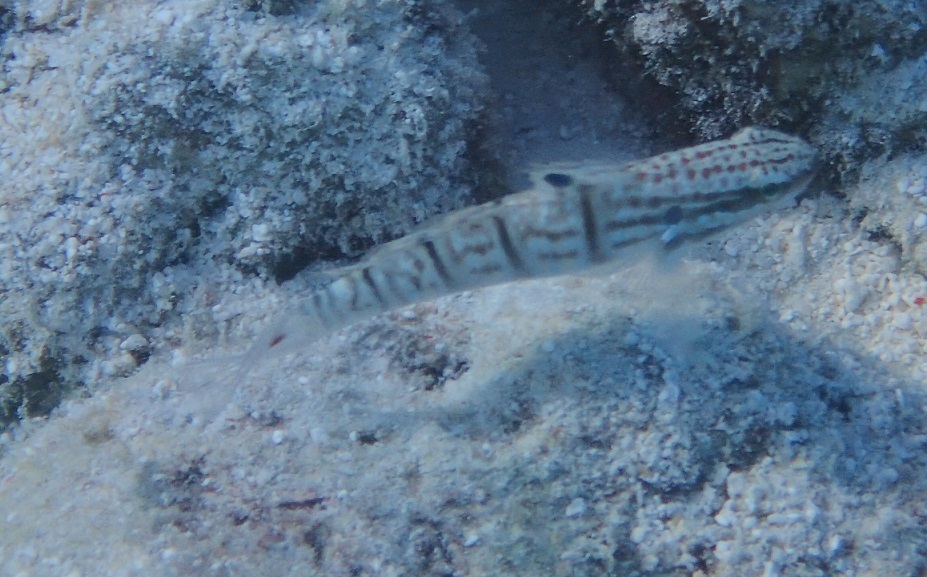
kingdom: Animalia
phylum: Chordata
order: Perciformes
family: Gobiidae
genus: Amblygobius
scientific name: Amblygobius phalaena
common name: Banded goby
